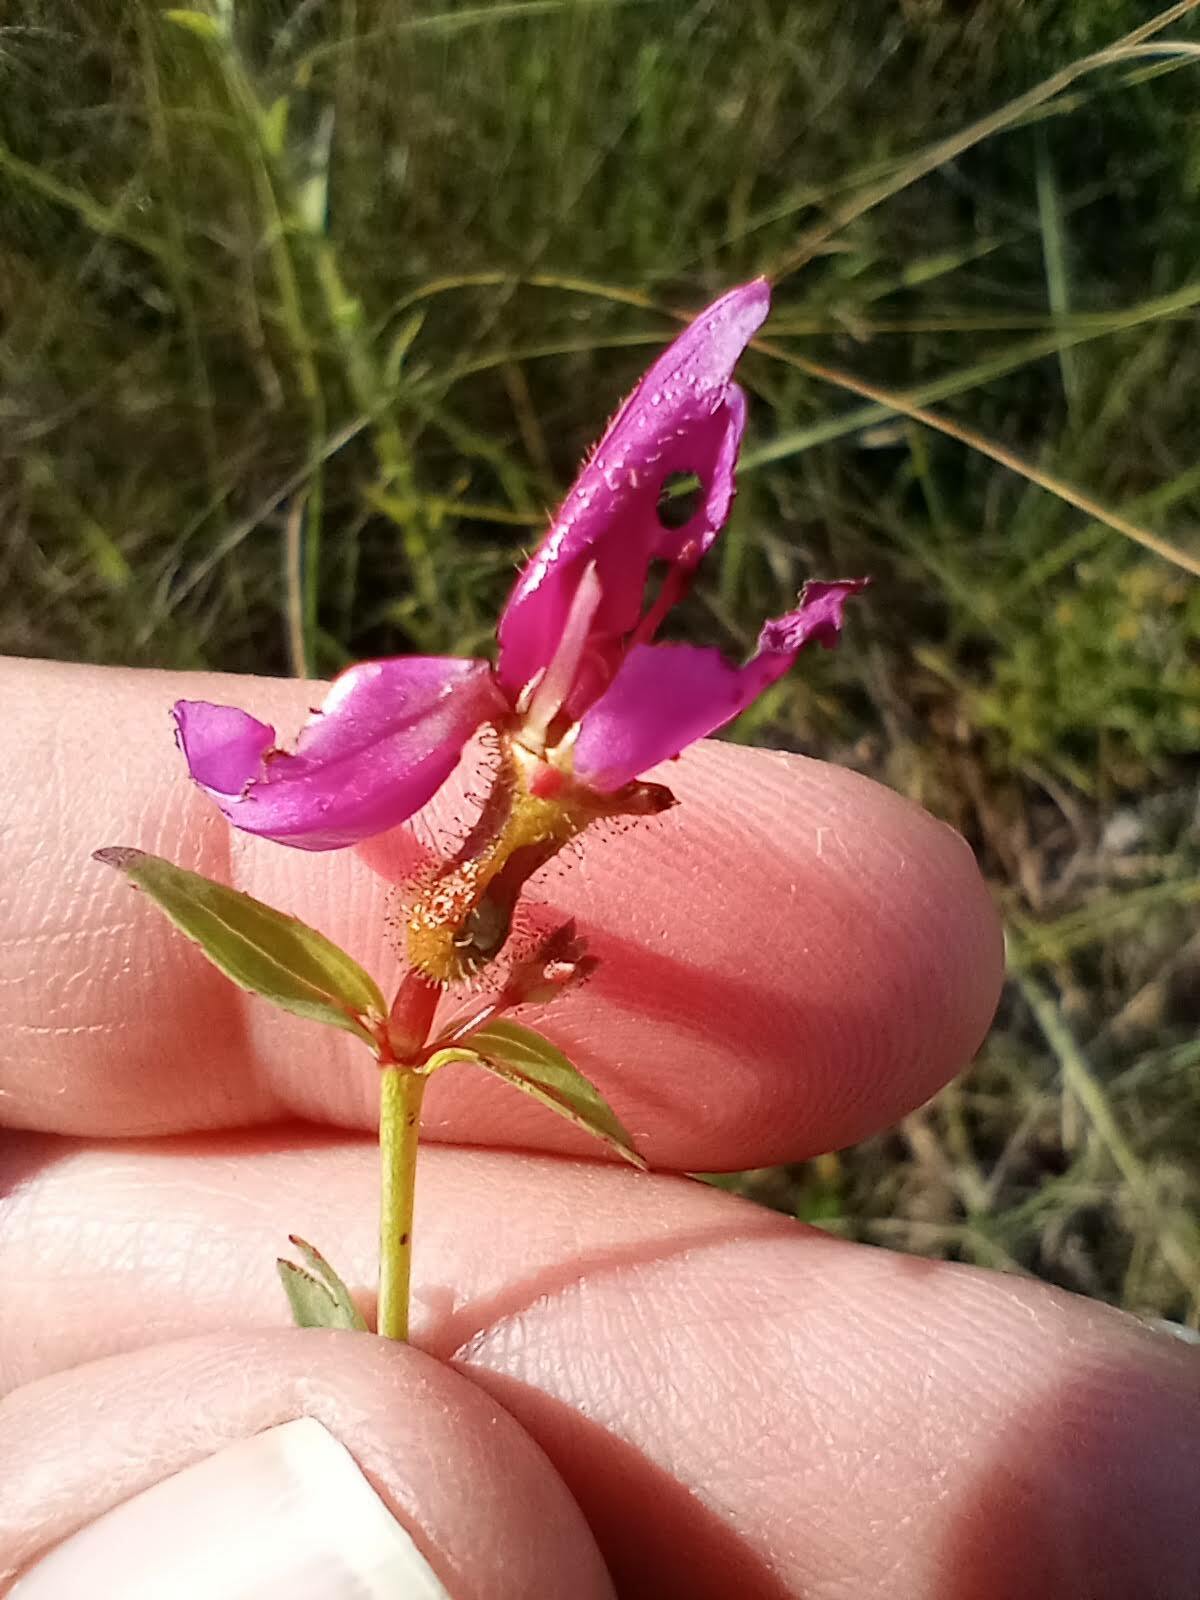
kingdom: Plantae
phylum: Tracheophyta
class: Magnoliopsida
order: Myrtales
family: Melastomataceae
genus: Rhexia
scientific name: Rhexia alifanus
